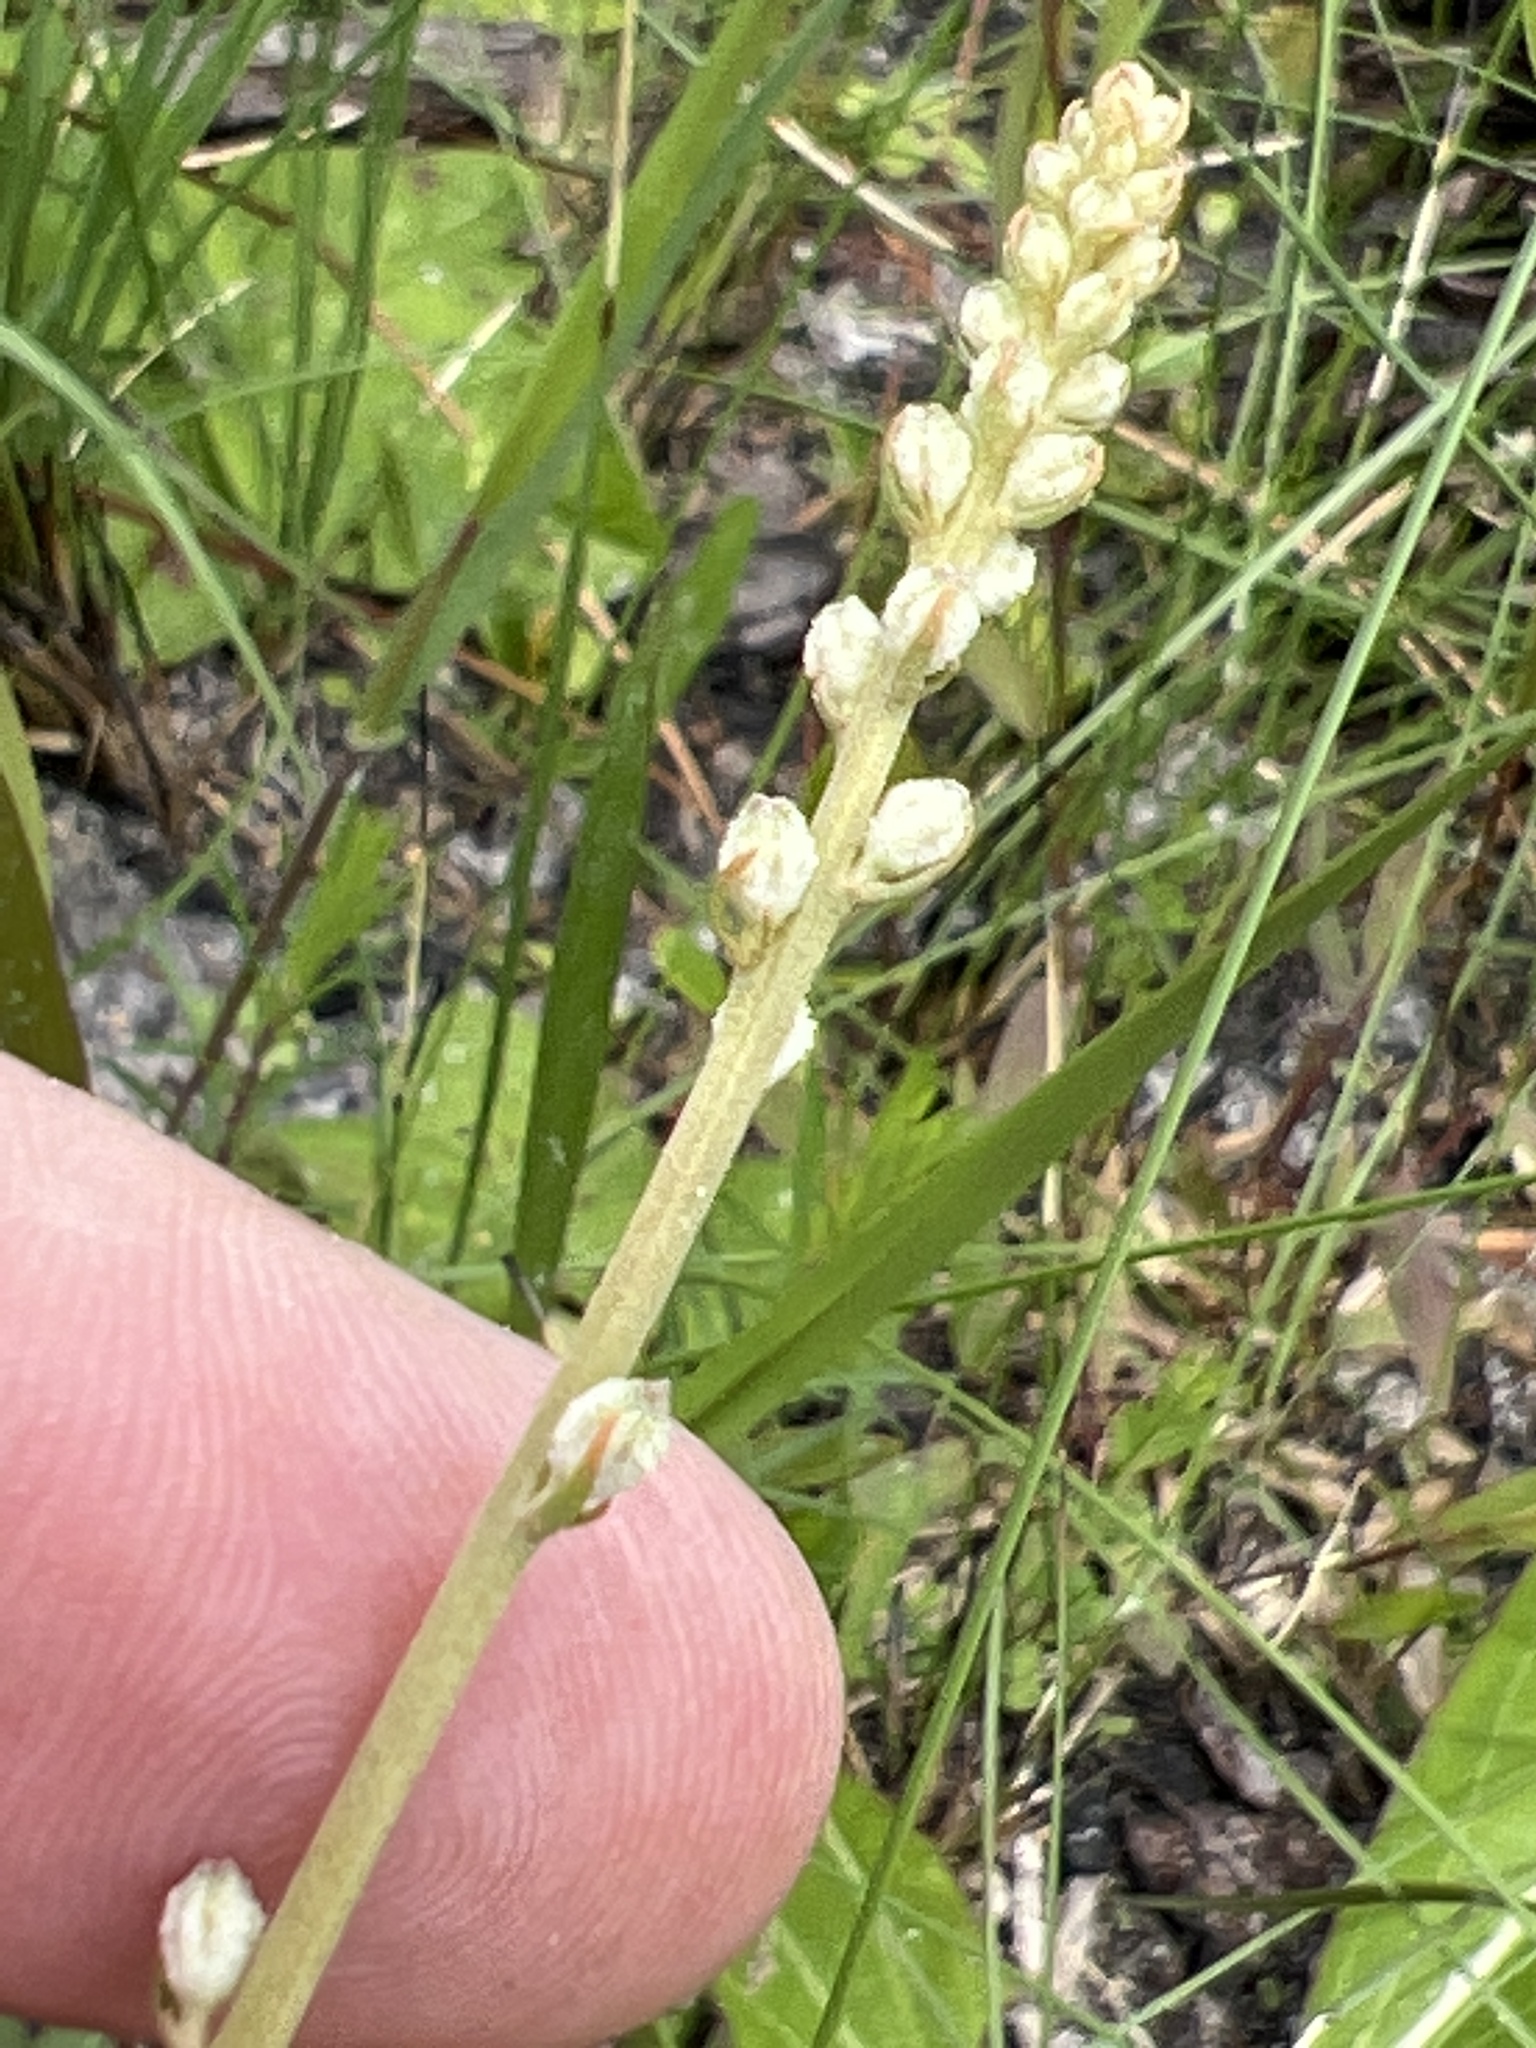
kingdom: Plantae
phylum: Tracheophyta
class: Liliopsida
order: Dioscoreales
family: Nartheciaceae
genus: Aletris
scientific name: Aletris obovata
